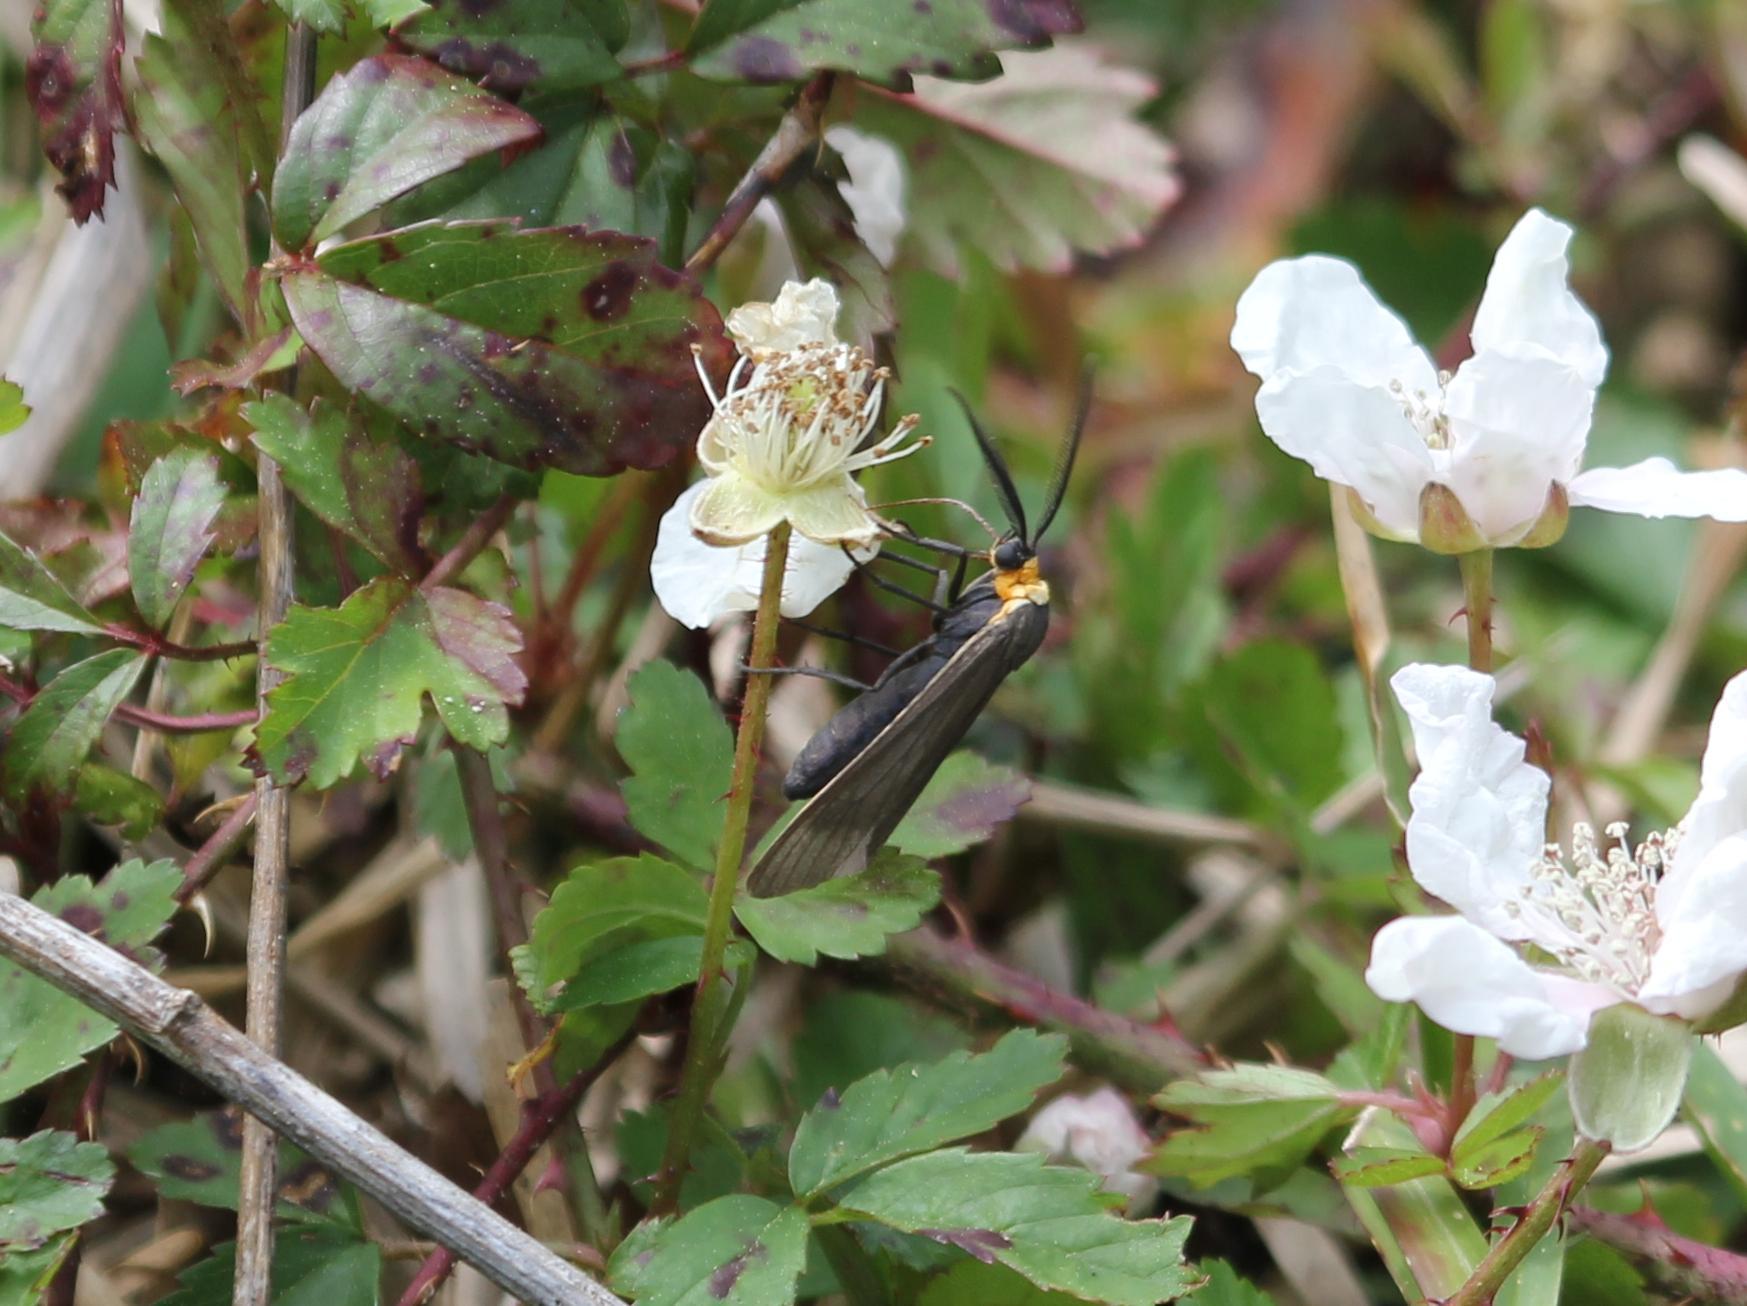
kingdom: Animalia
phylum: Arthropoda
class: Insecta
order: Lepidoptera
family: Erebidae
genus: Cisseps
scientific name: Cisseps fulvicollis
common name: Yellow-collared scape moth
